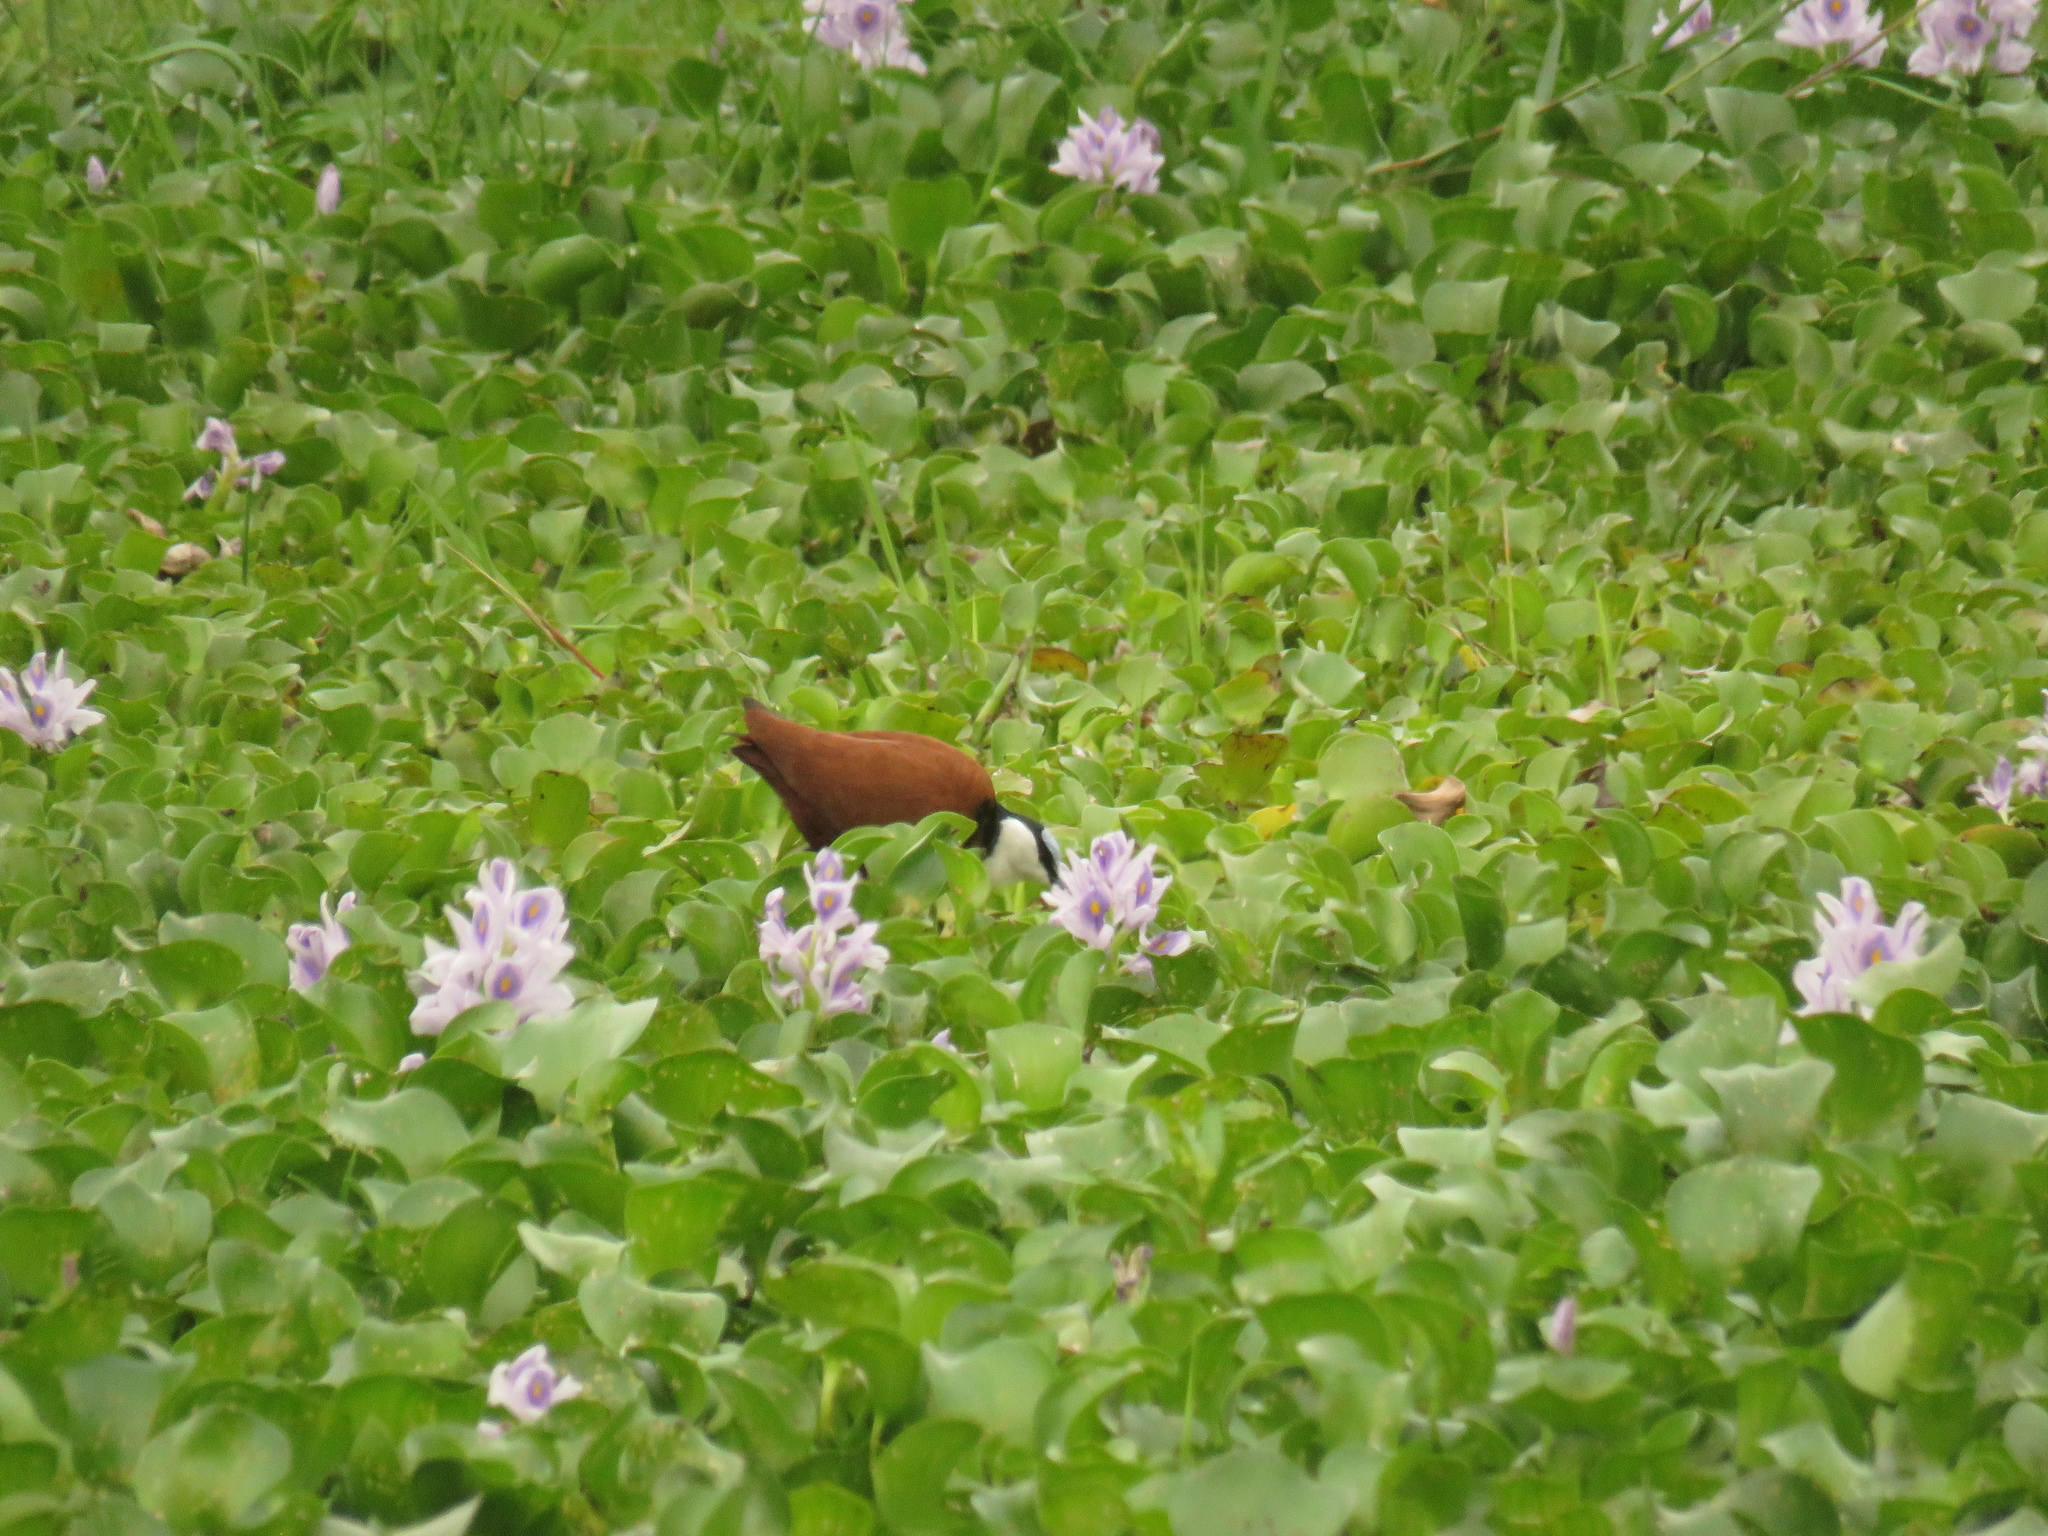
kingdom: Animalia
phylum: Chordata
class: Aves
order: Charadriiformes
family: Jacanidae
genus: Actophilornis
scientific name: Actophilornis africanus
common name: African jacana
